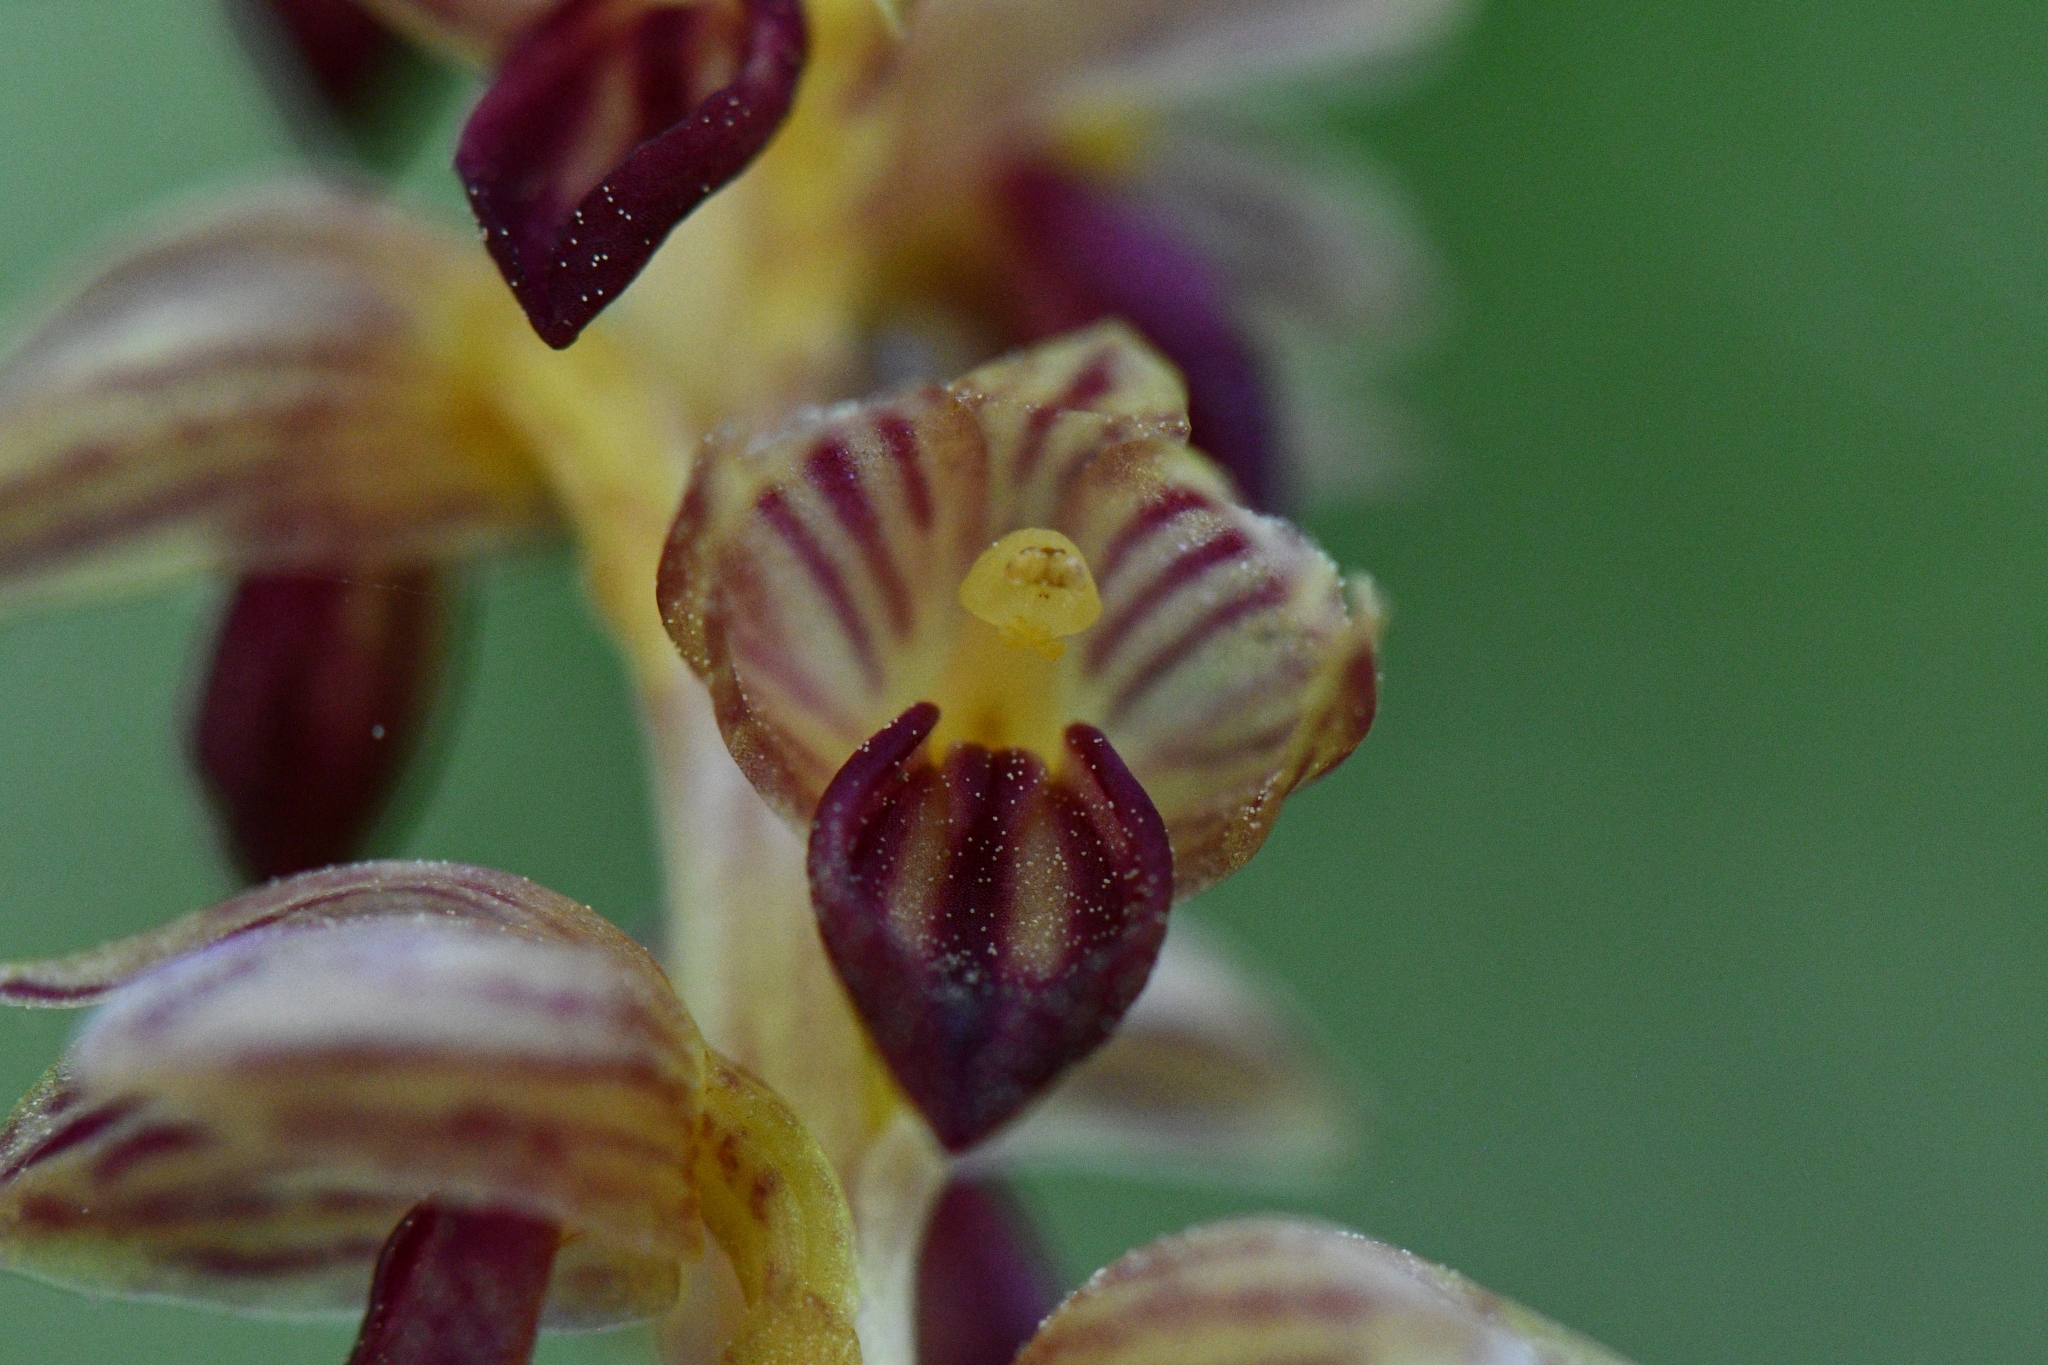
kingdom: Plantae
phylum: Tracheophyta
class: Liliopsida
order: Asparagales
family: Orchidaceae
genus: Corallorhiza
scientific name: Corallorhiza striata
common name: Hooded coralroot
